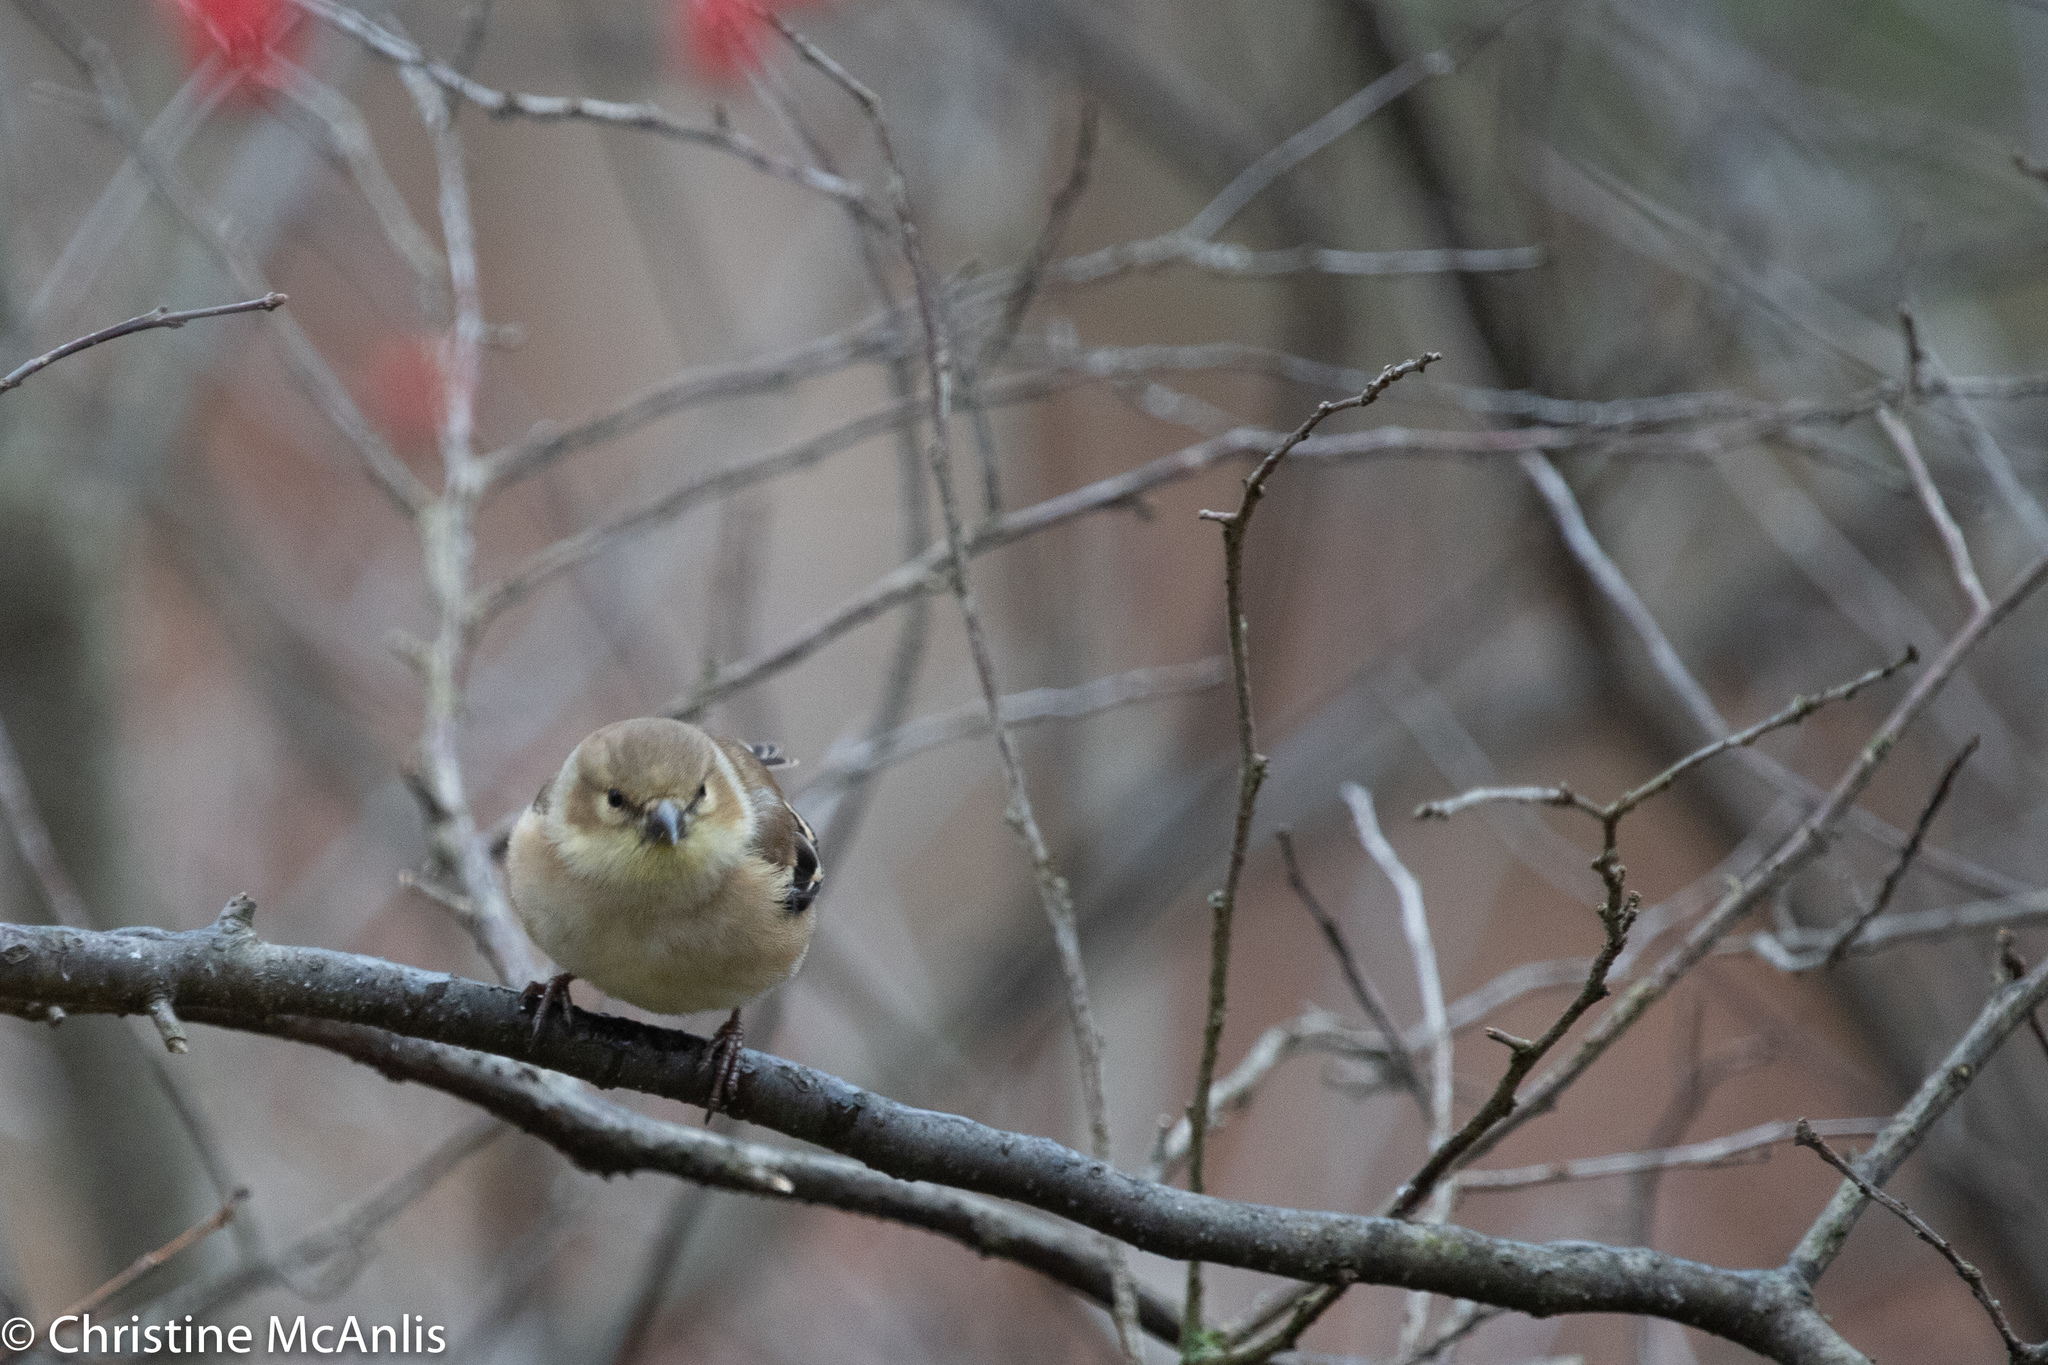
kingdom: Animalia
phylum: Chordata
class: Aves
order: Passeriformes
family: Fringillidae
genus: Spinus
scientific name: Spinus tristis
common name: American goldfinch
